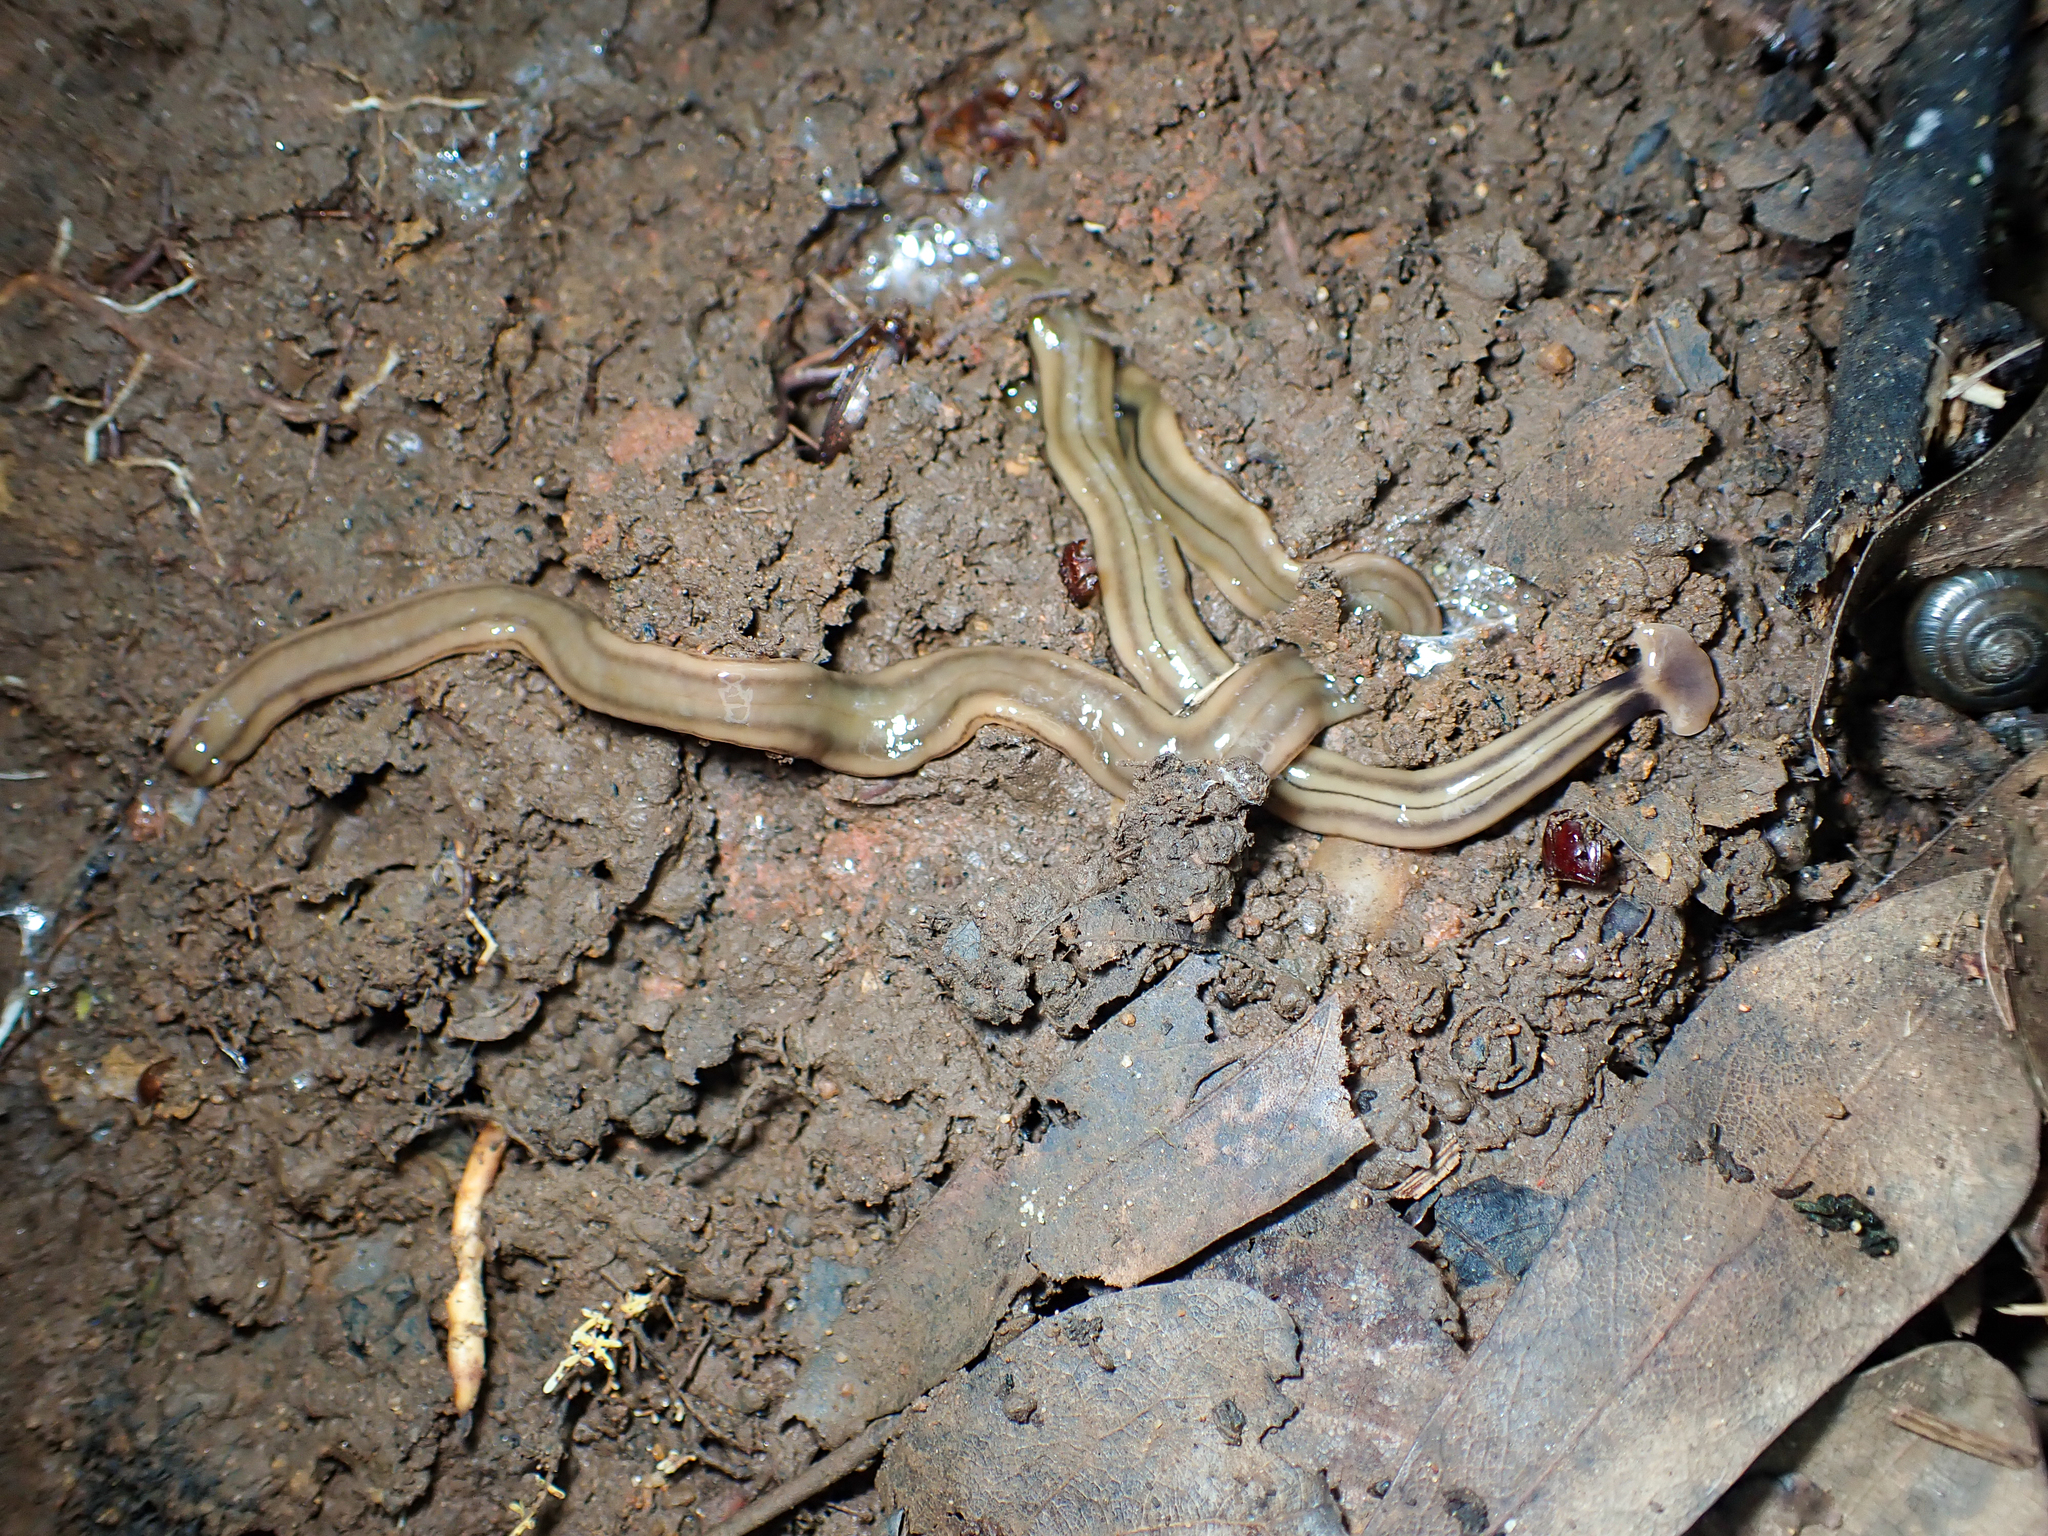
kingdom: Animalia
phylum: Platyhelminthes
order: Tricladida
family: Geoplanidae
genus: Bipalium
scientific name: Bipalium kewense
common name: Hammerhead flatworm
